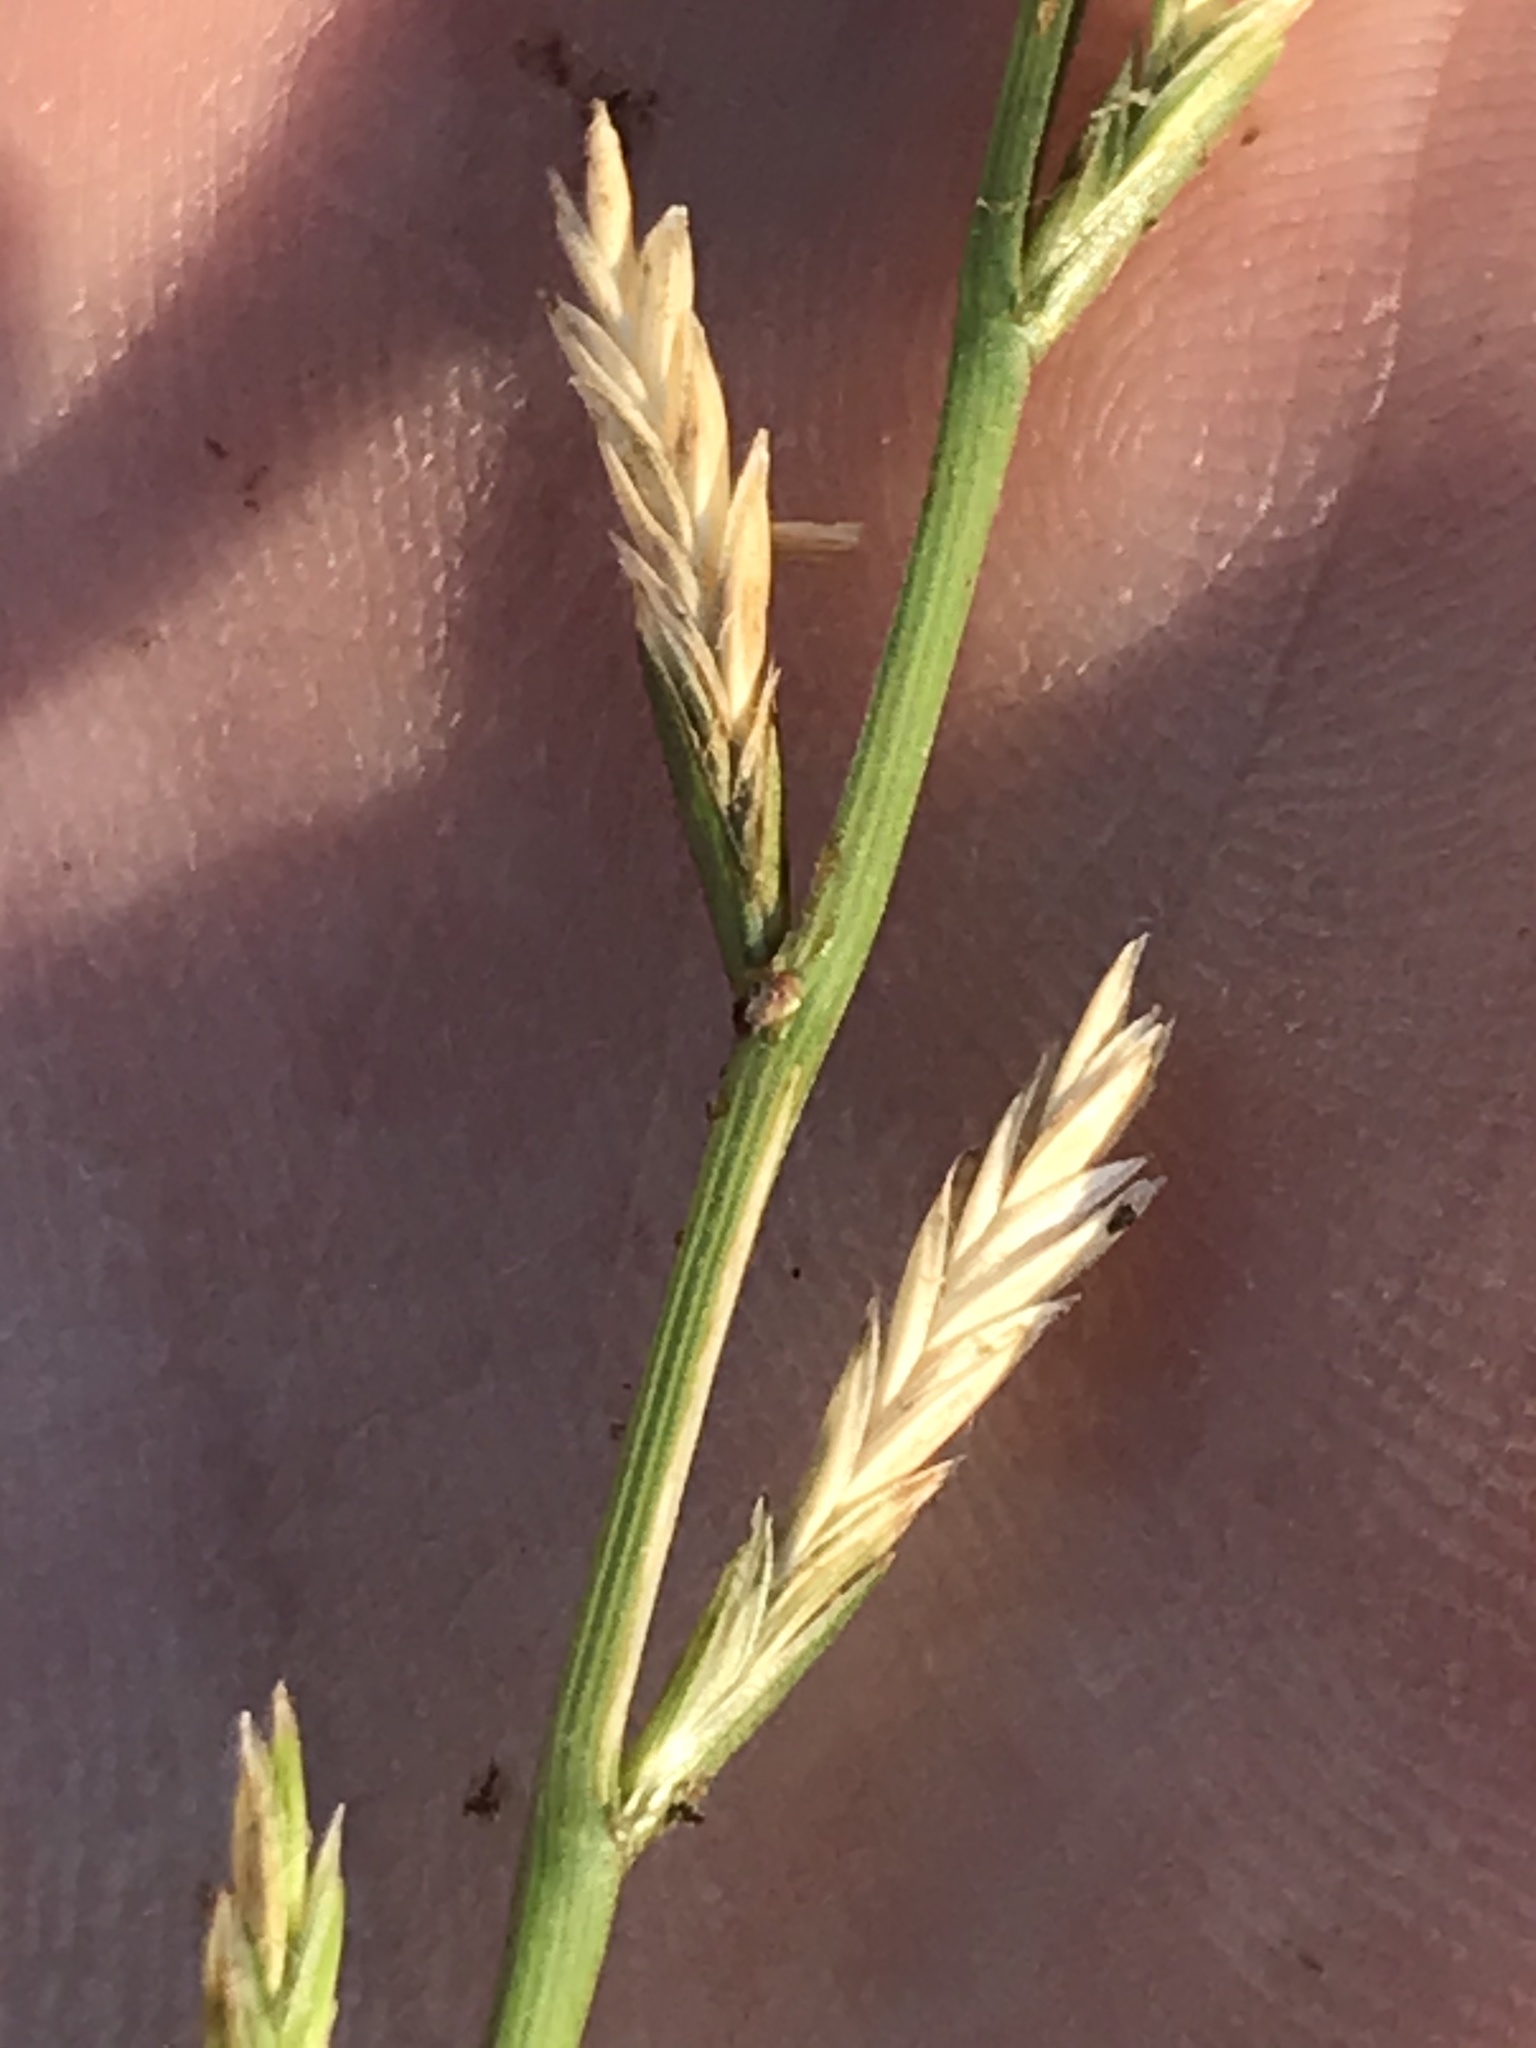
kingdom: Plantae
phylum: Tracheophyta
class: Liliopsida
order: Poales
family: Poaceae
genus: Lolium
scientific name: Lolium perenne
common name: Perennial ryegrass
